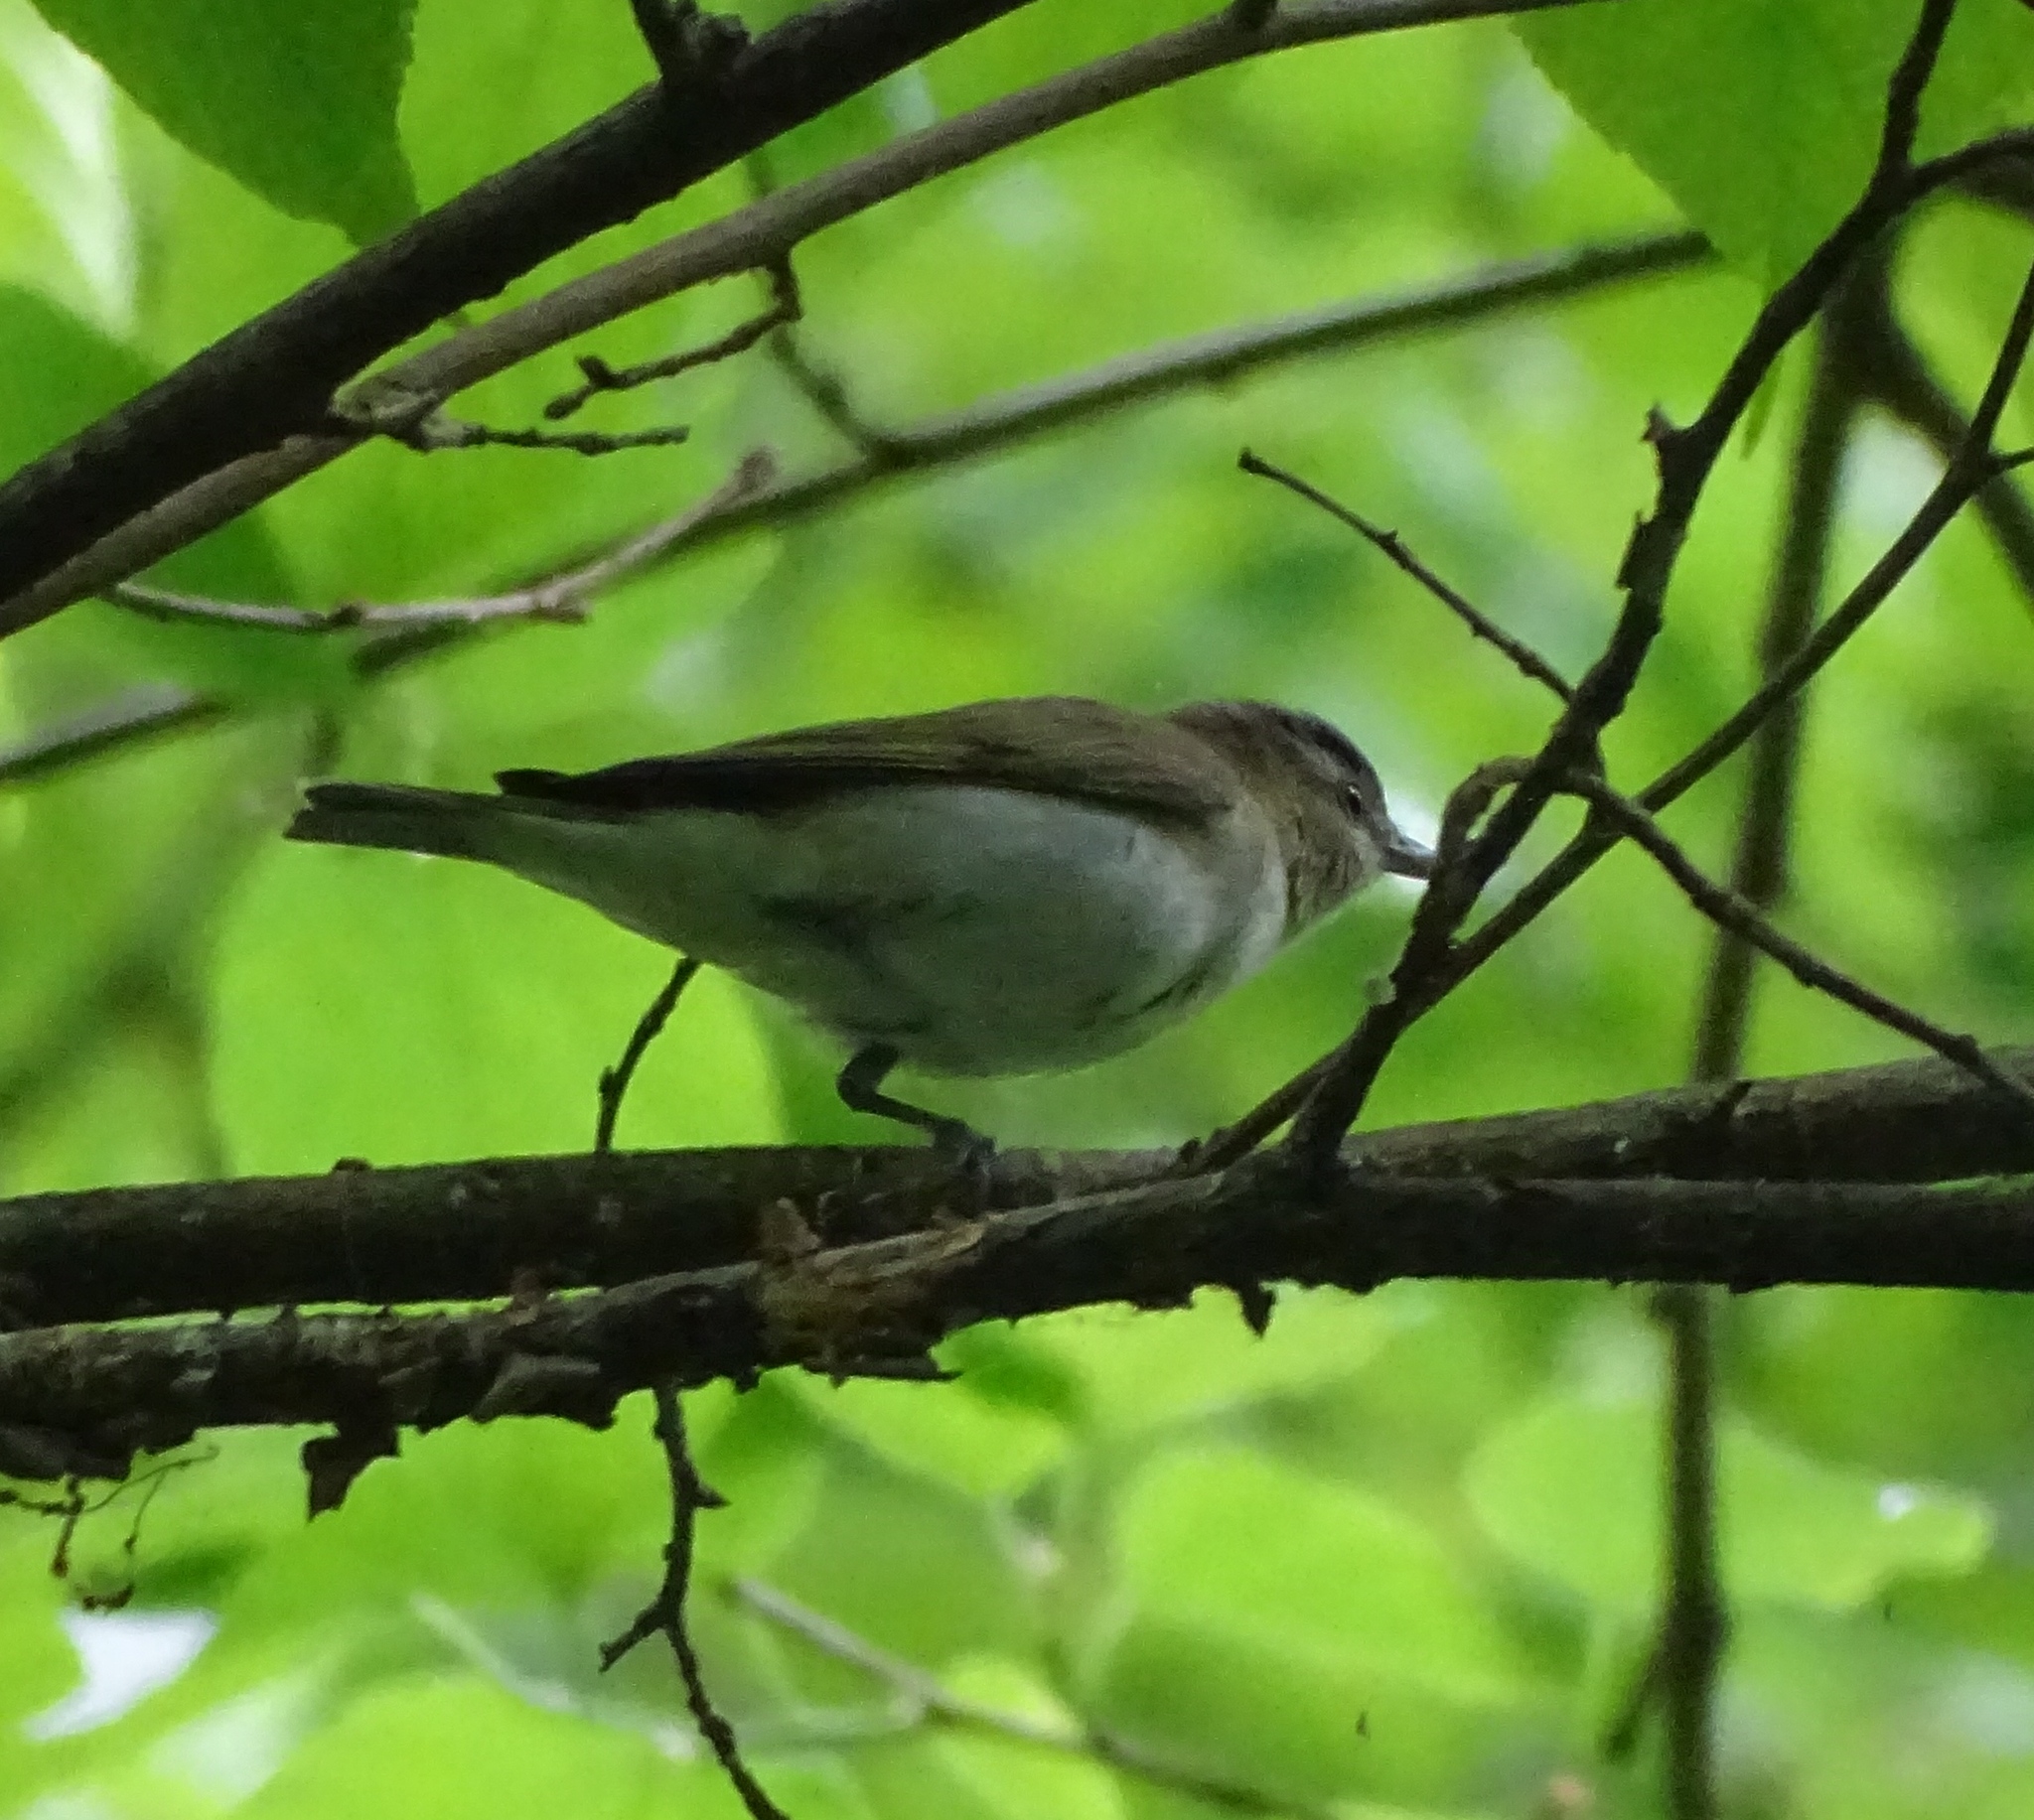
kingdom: Animalia
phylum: Chordata
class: Aves
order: Passeriformes
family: Vireonidae
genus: Vireo
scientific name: Vireo olivaceus
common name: Red-eyed vireo
